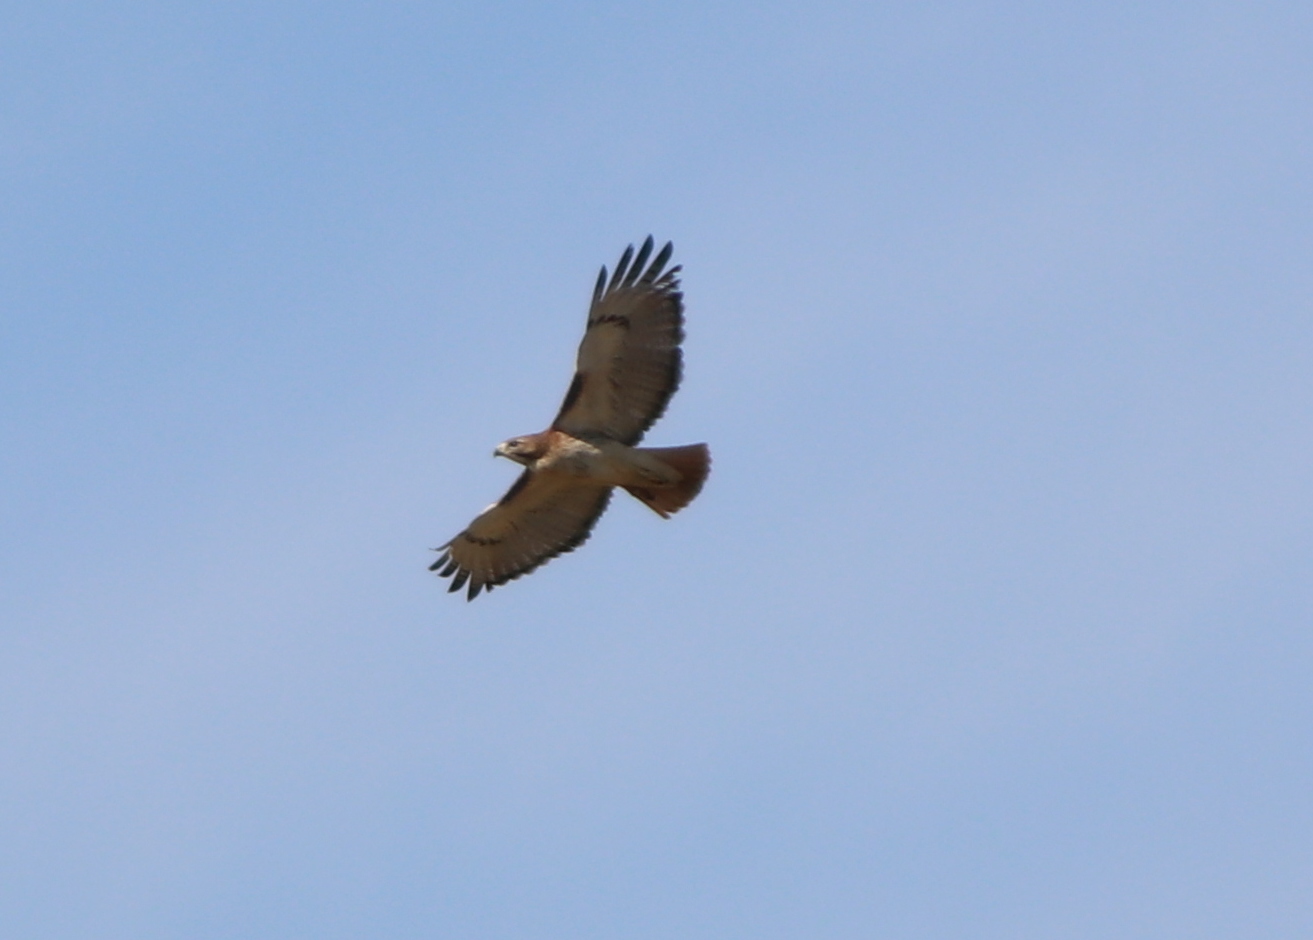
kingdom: Animalia
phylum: Chordata
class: Aves
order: Accipitriformes
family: Accipitridae
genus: Buteo
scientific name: Buteo jamaicensis
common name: Red-tailed hawk
